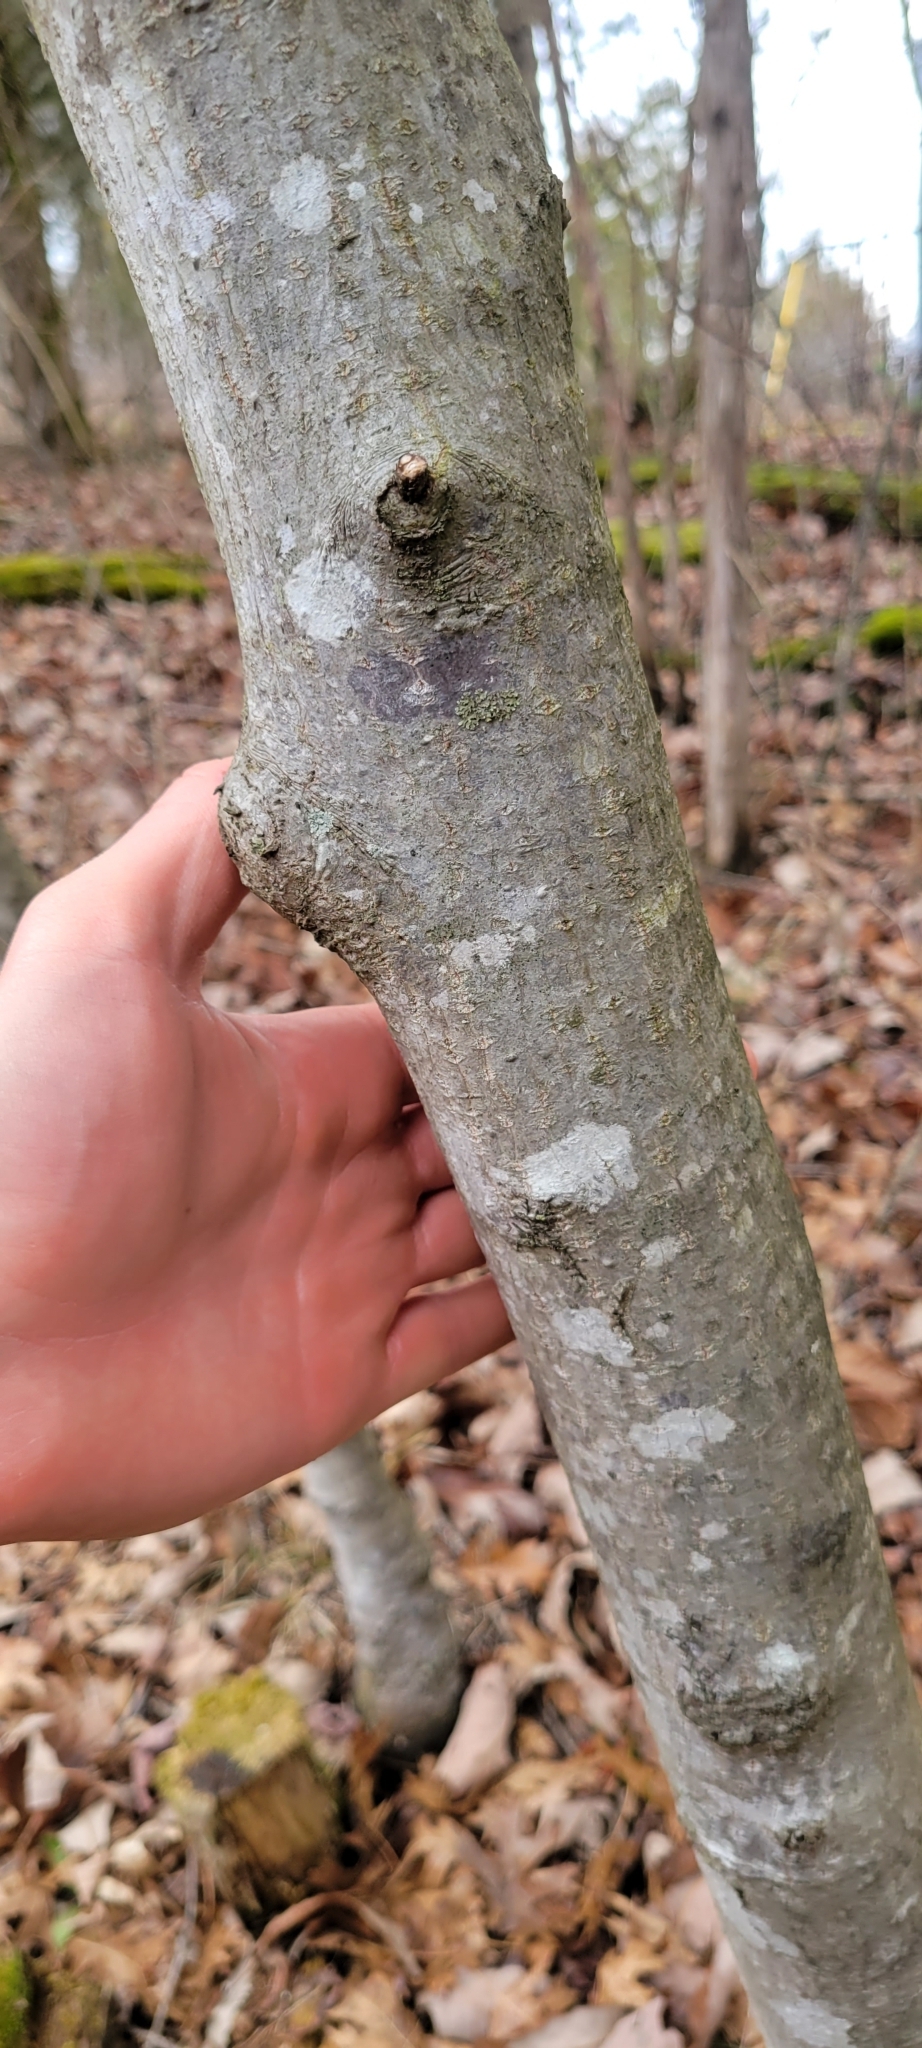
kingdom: Plantae
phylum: Tracheophyta
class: Magnoliopsida
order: Rosales
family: Rhamnaceae
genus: Frangula
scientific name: Frangula caroliniana
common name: Carolina buckthorn
